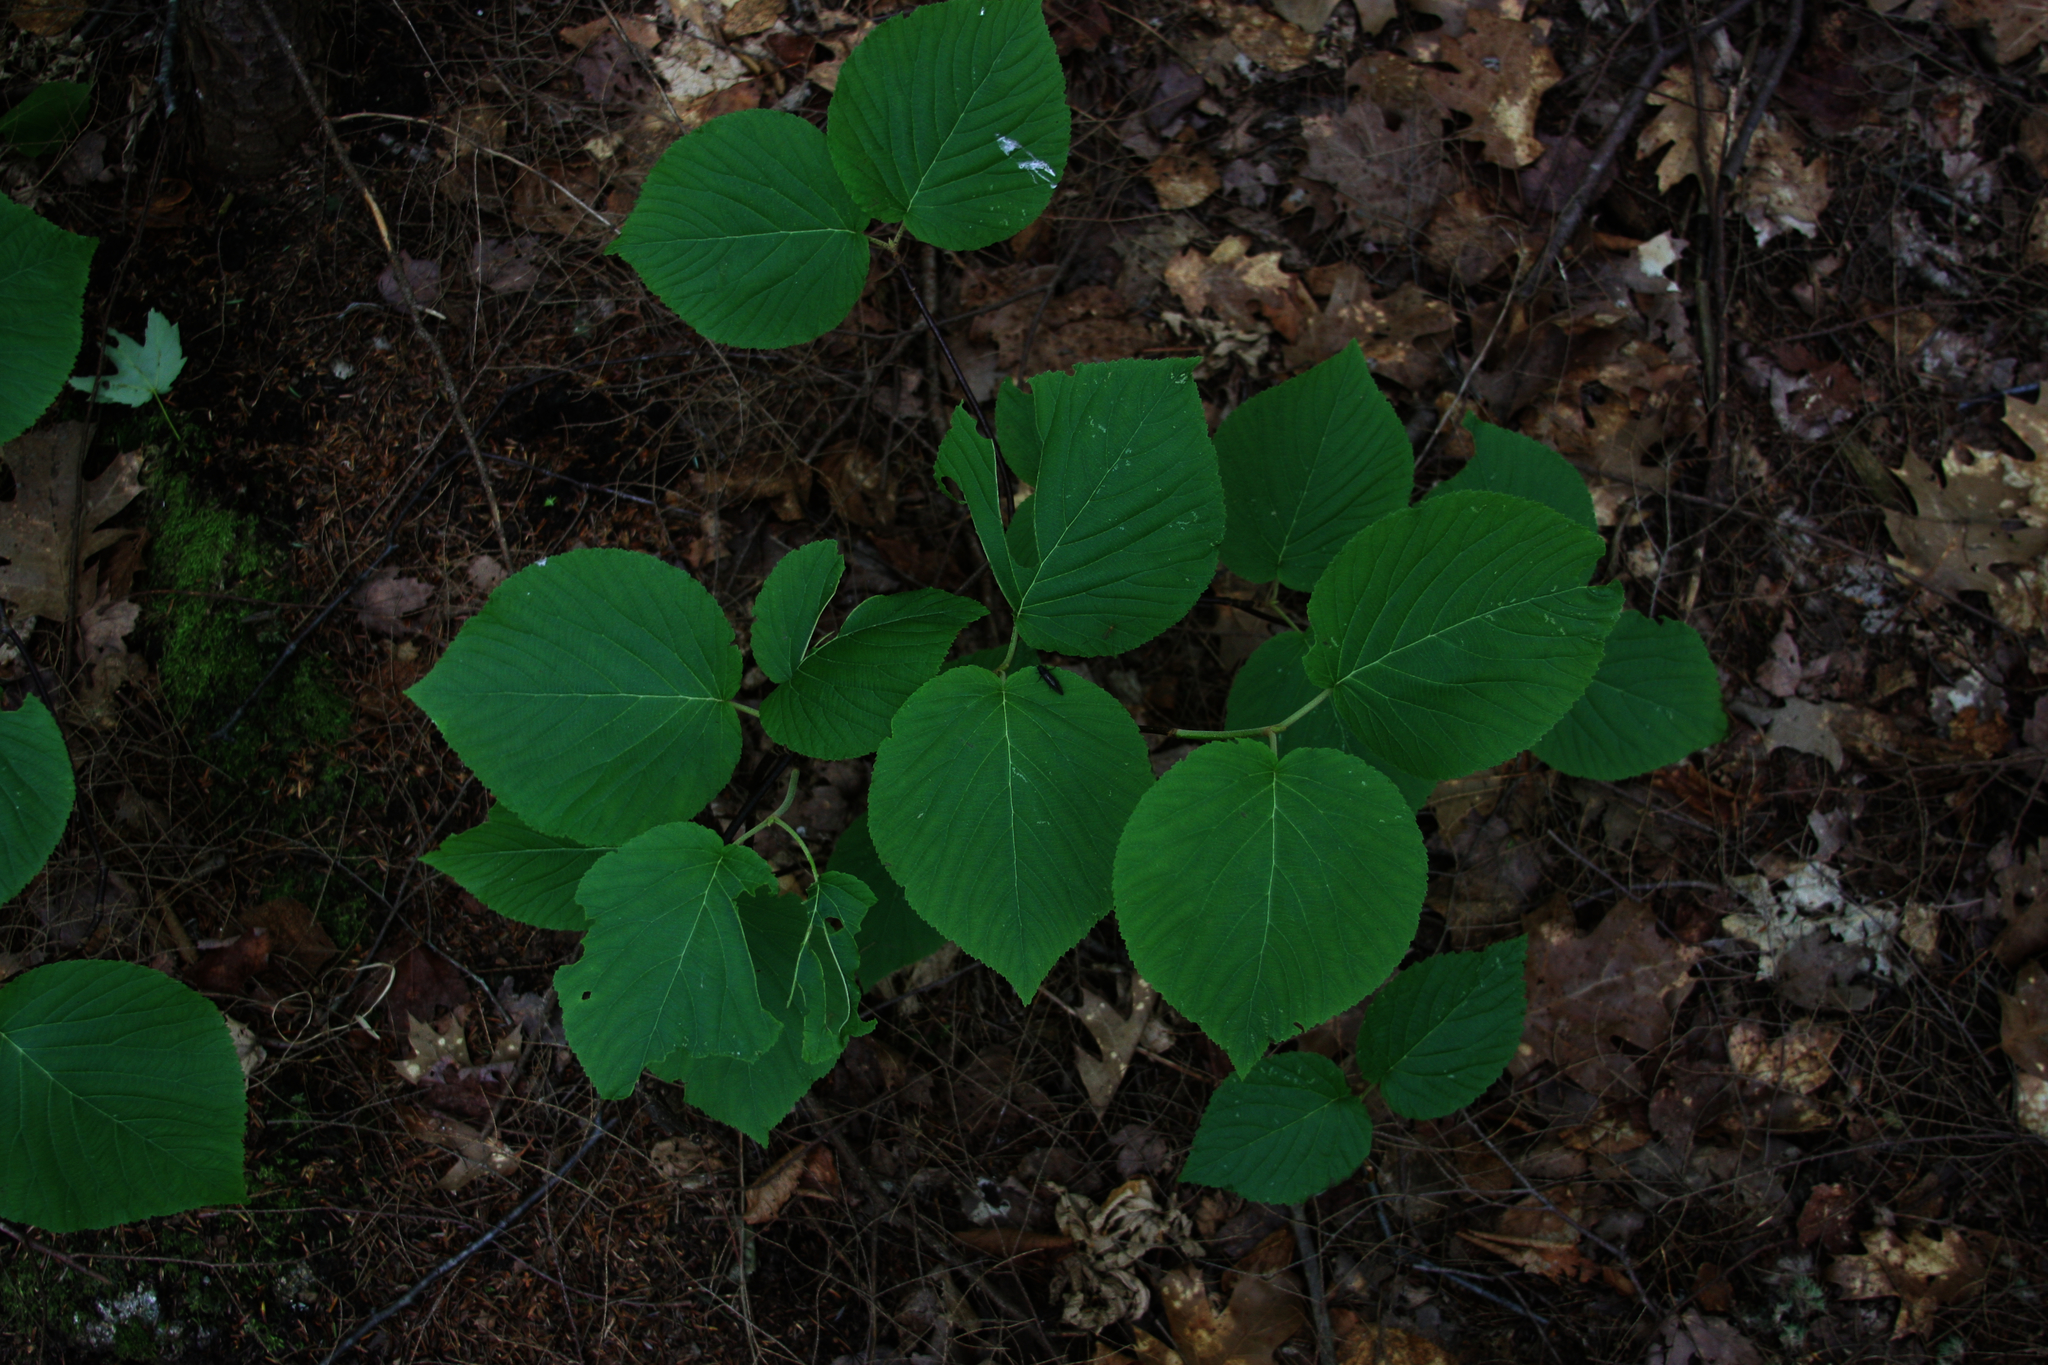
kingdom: Plantae
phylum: Tracheophyta
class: Magnoliopsida
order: Dipsacales
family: Viburnaceae
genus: Viburnum
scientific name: Viburnum lantanoides
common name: Hobblebush
